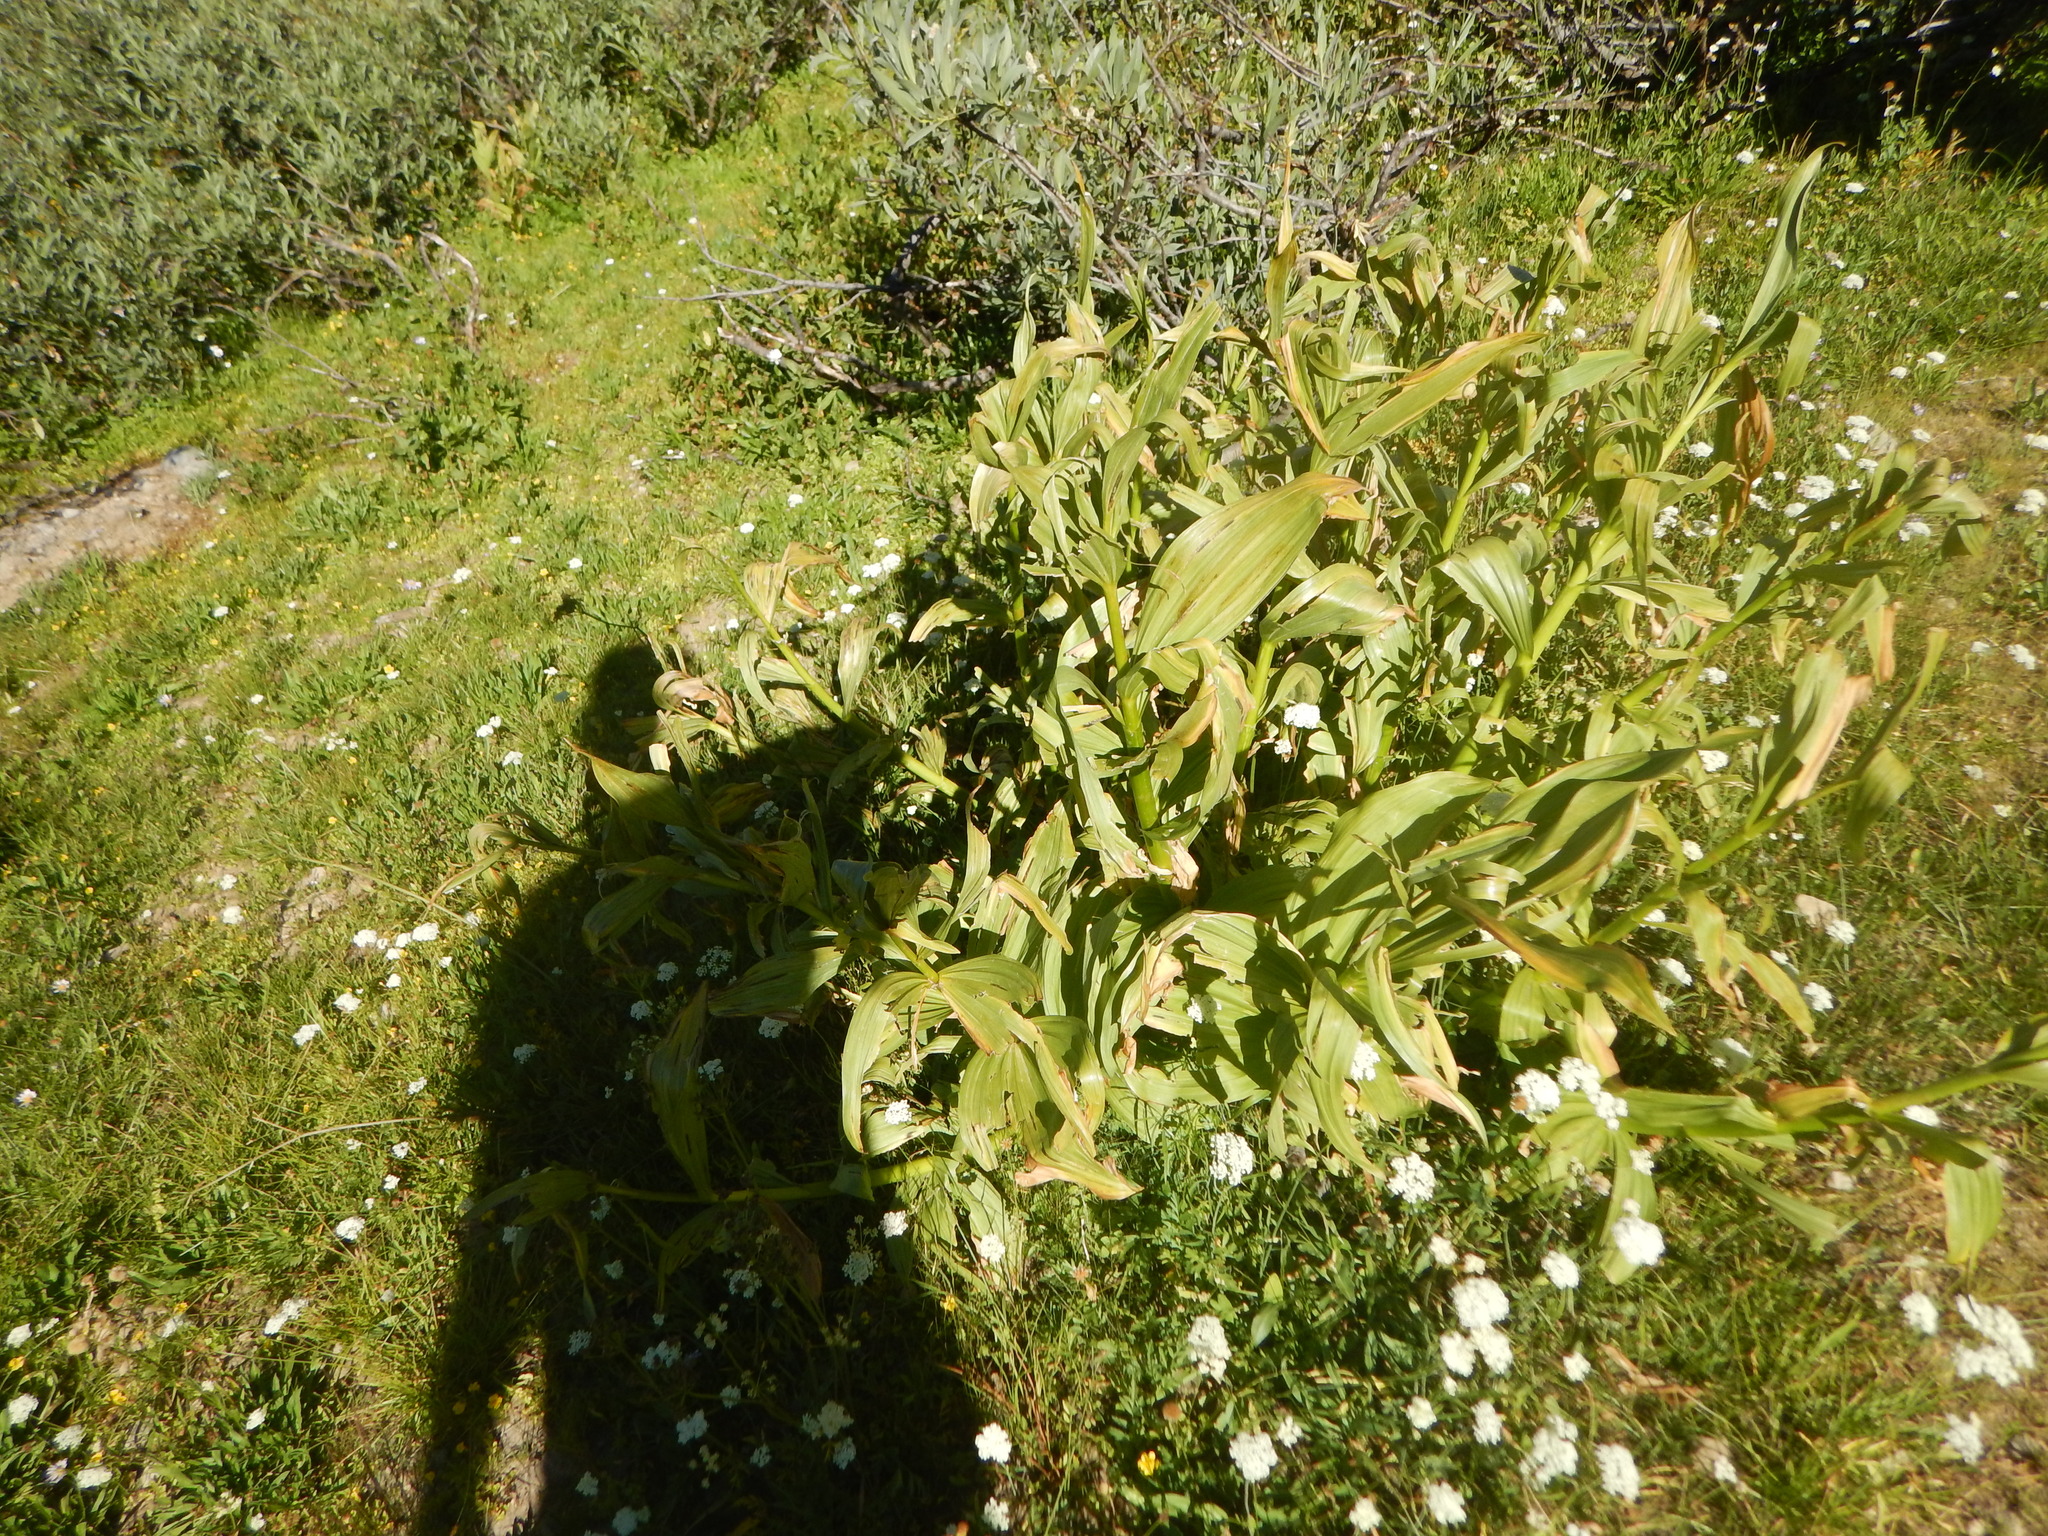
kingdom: Plantae
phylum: Tracheophyta
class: Liliopsida
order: Liliales
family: Melanthiaceae
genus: Veratrum
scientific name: Veratrum californicum
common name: California veratrum
